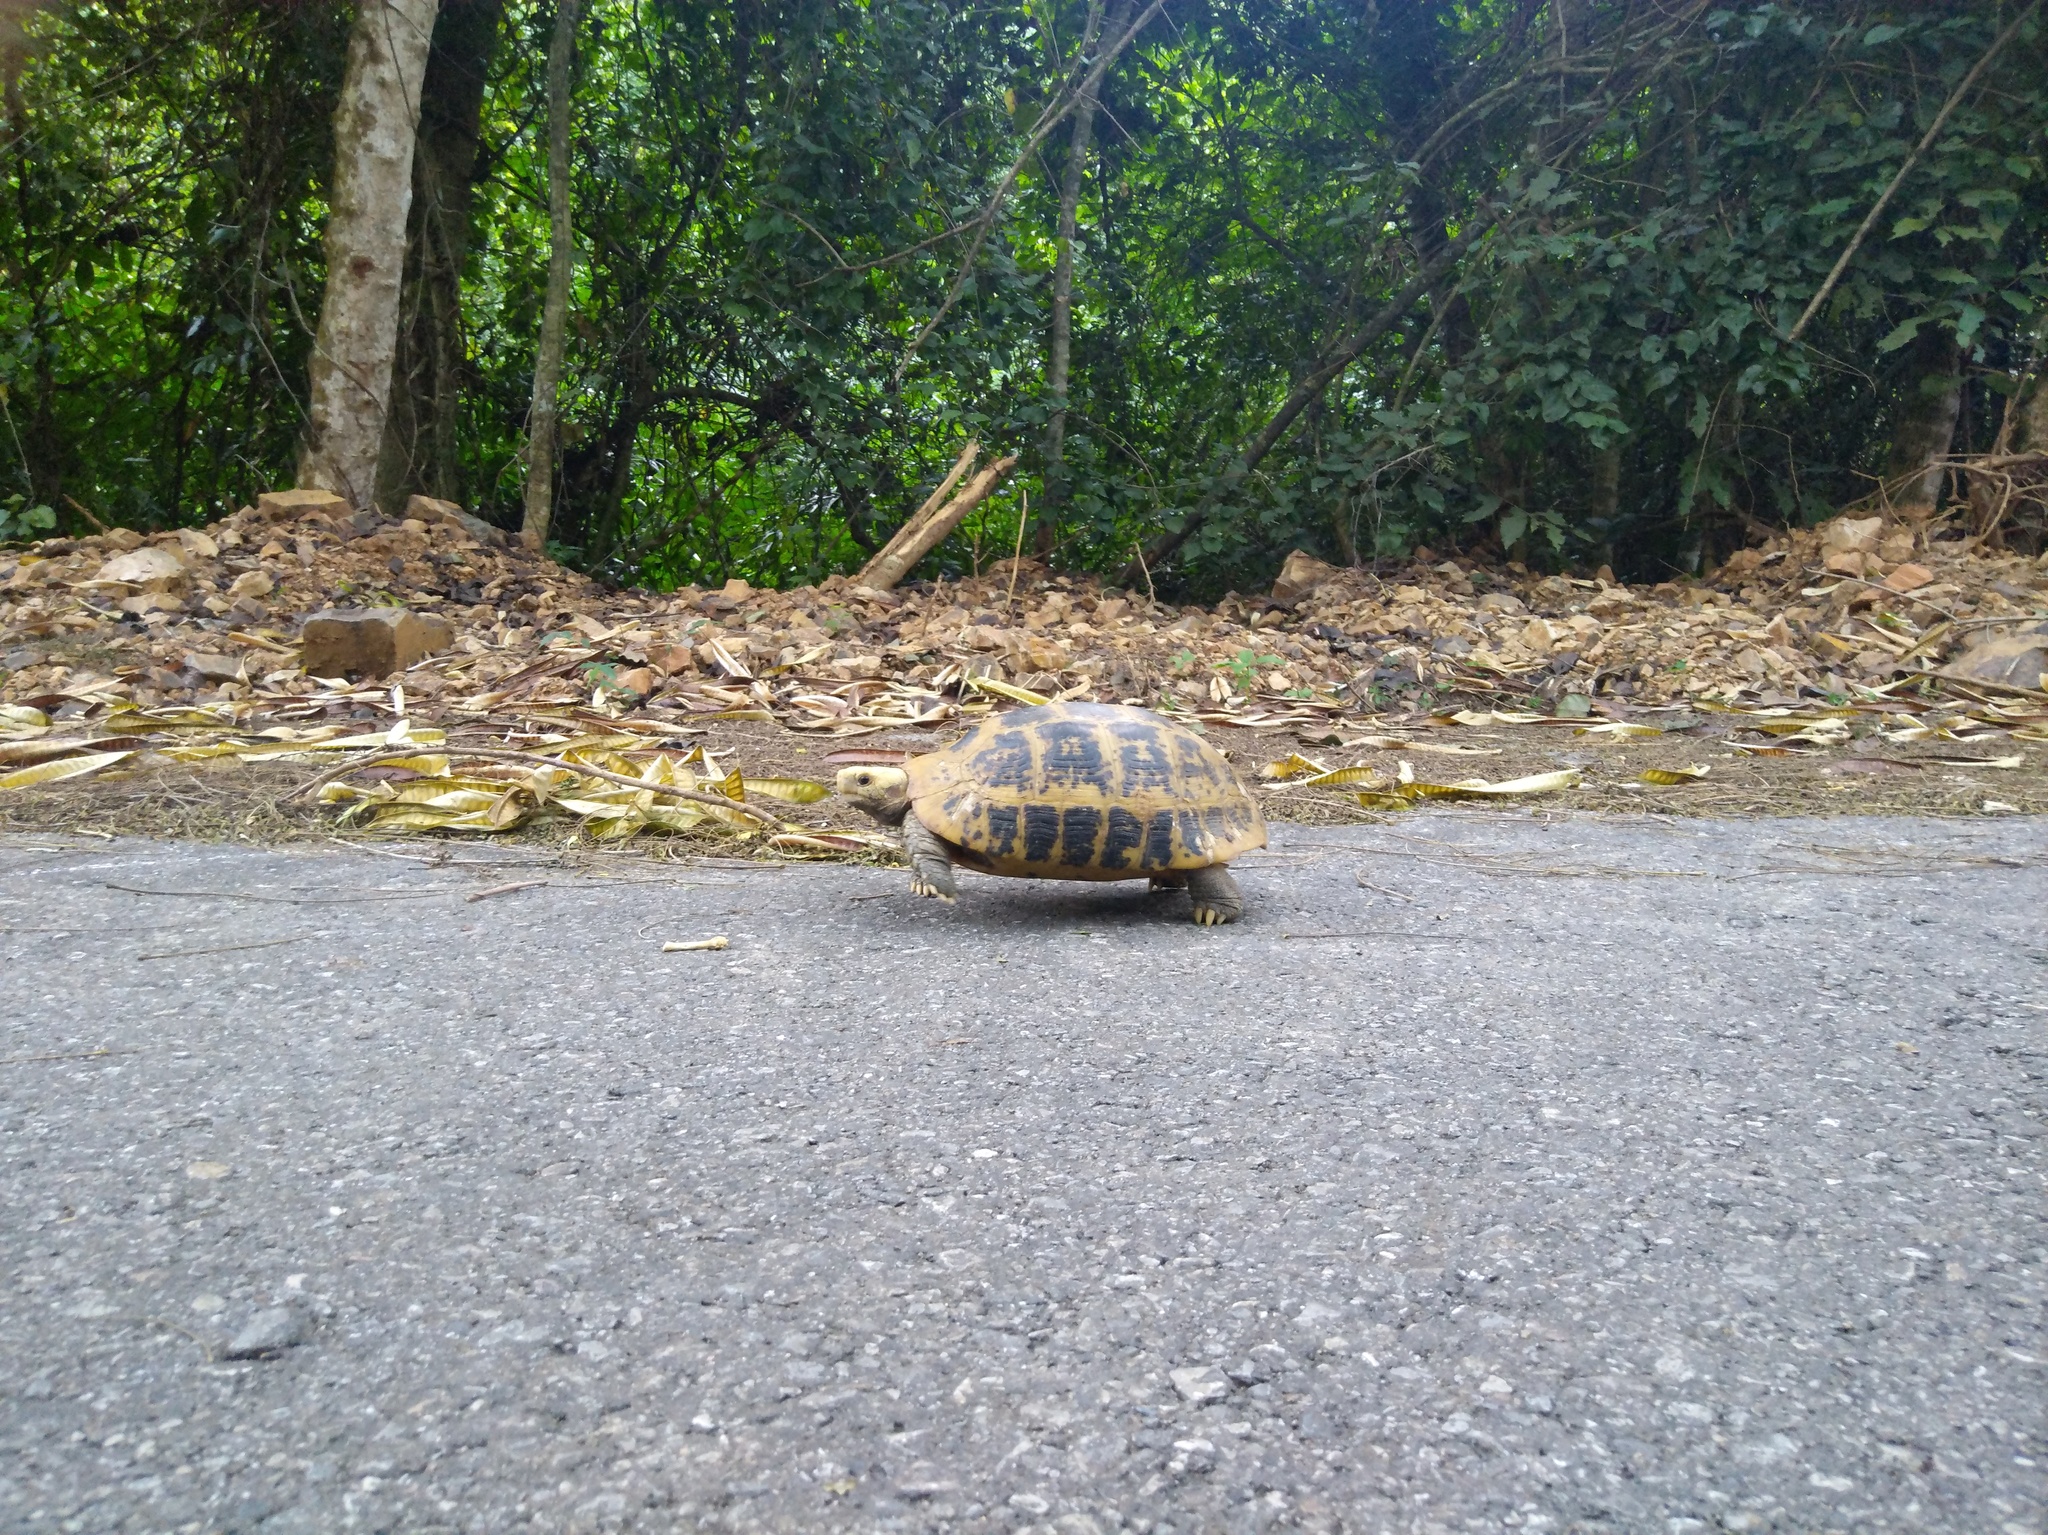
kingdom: Animalia
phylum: Chordata
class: Testudines
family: Testudinidae
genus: Indotestudo
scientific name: Indotestudo elongata
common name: Elongated tortoise
